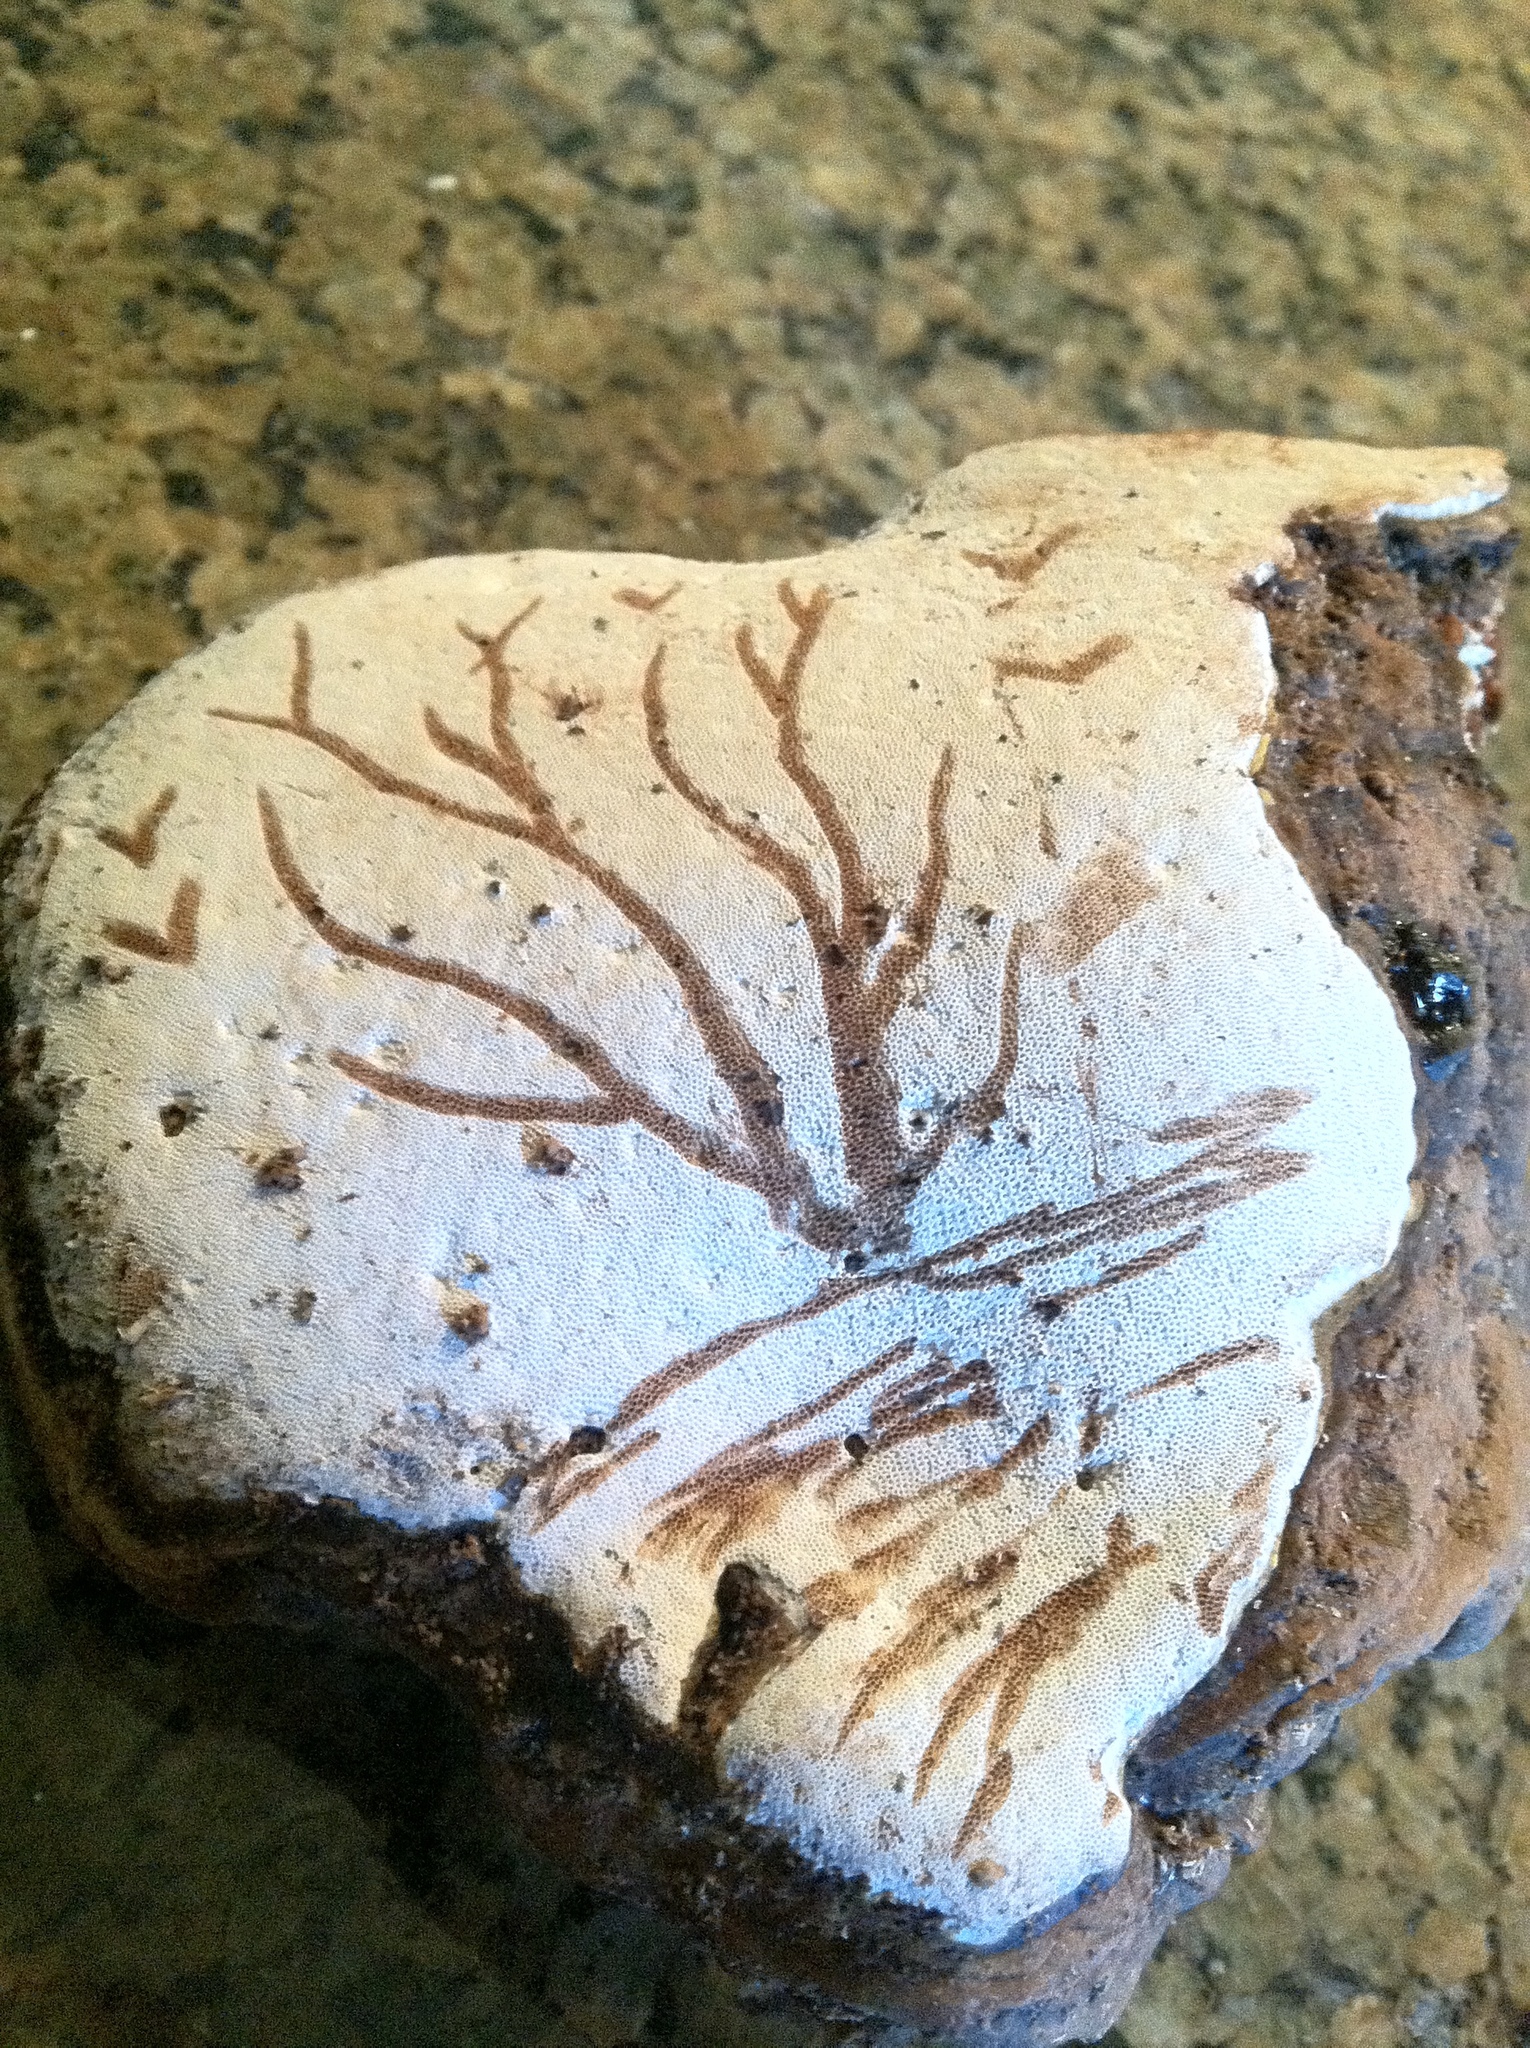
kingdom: Fungi
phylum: Basidiomycota
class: Agaricomycetes
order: Polyporales
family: Polyporaceae
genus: Ganoderma
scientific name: Ganoderma applanatum
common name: Artist's bracket
